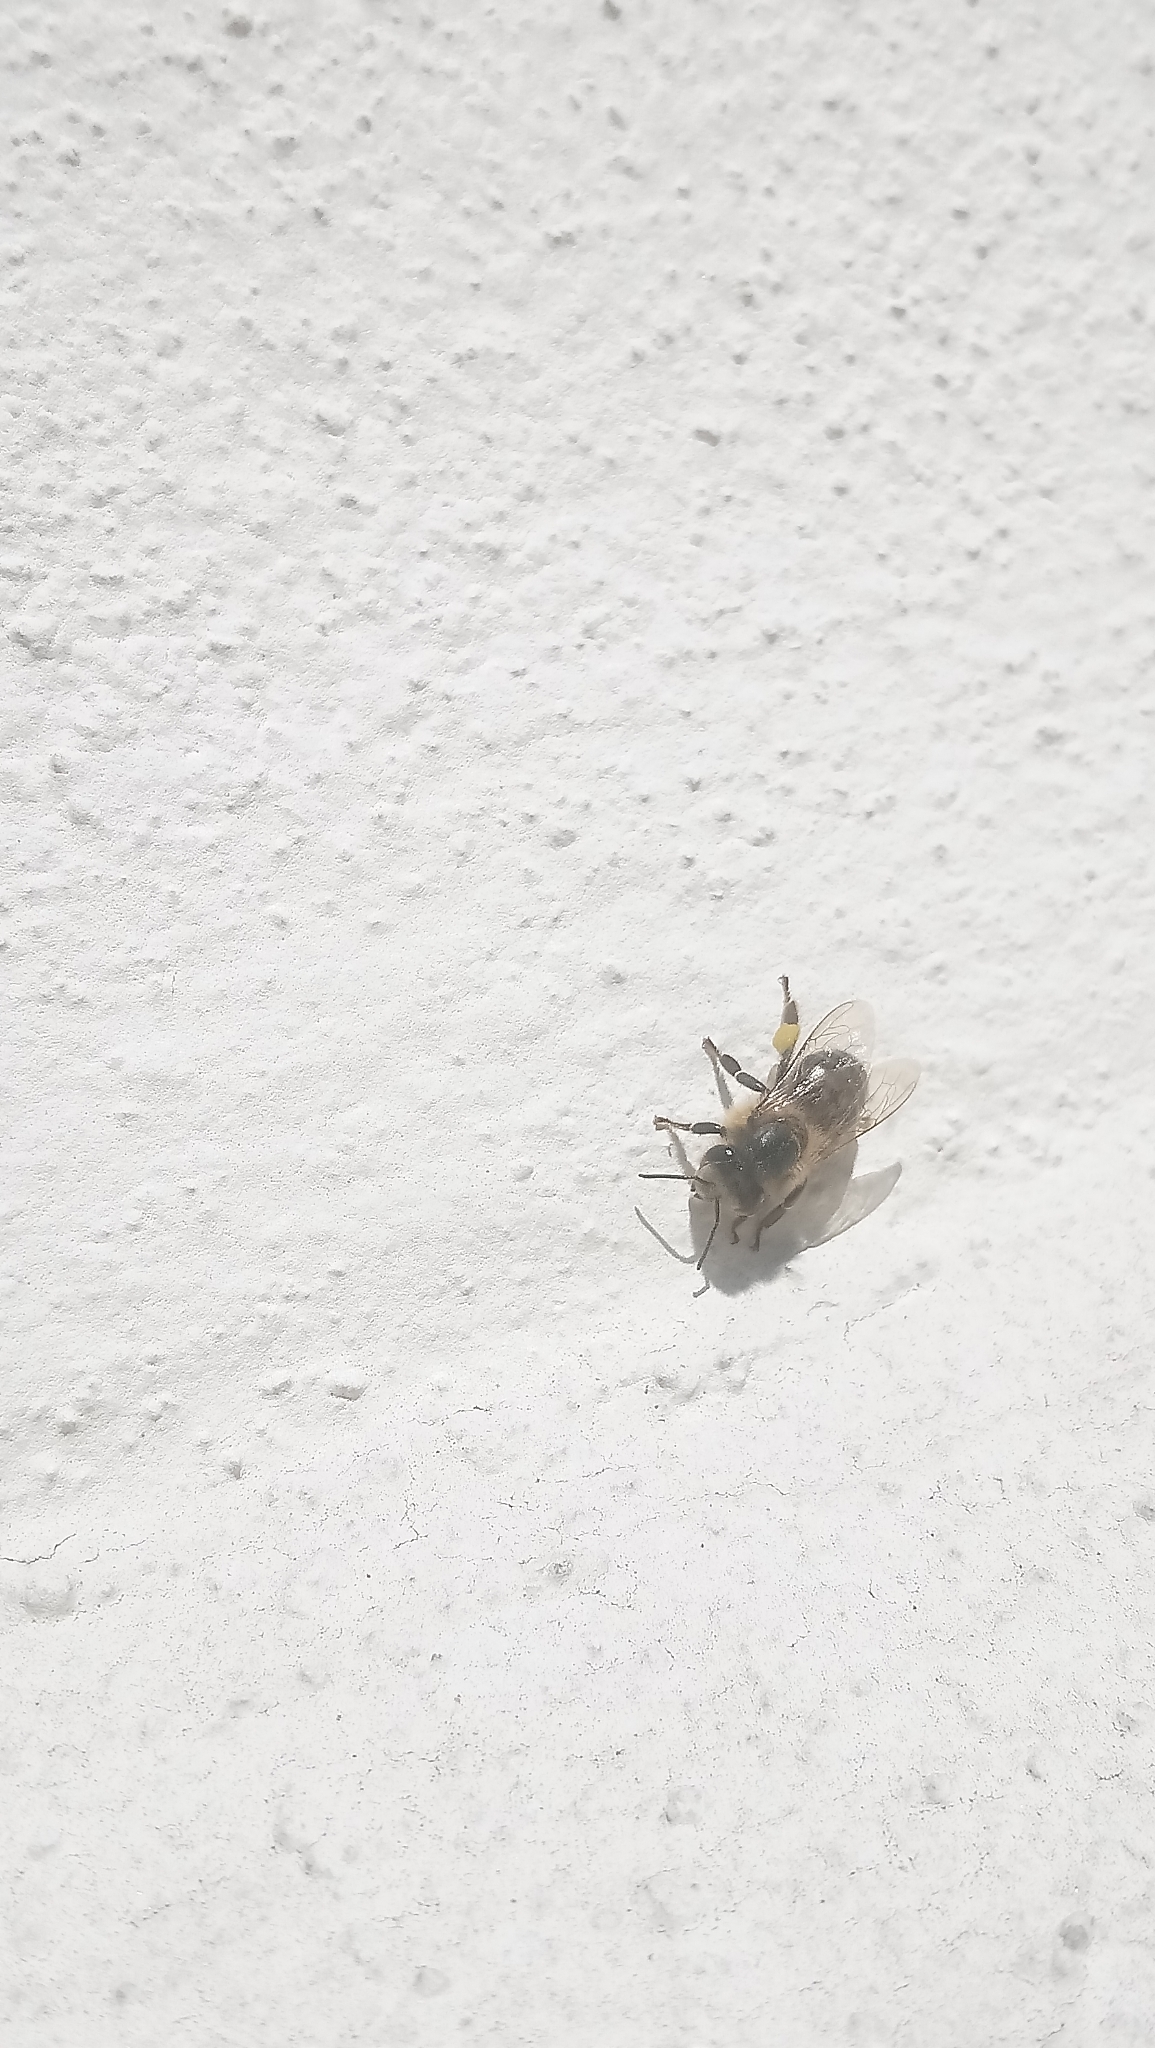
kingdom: Animalia
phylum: Arthropoda
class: Insecta
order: Hymenoptera
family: Apidae
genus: Apis
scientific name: Apis mellifera
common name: Honey bee
